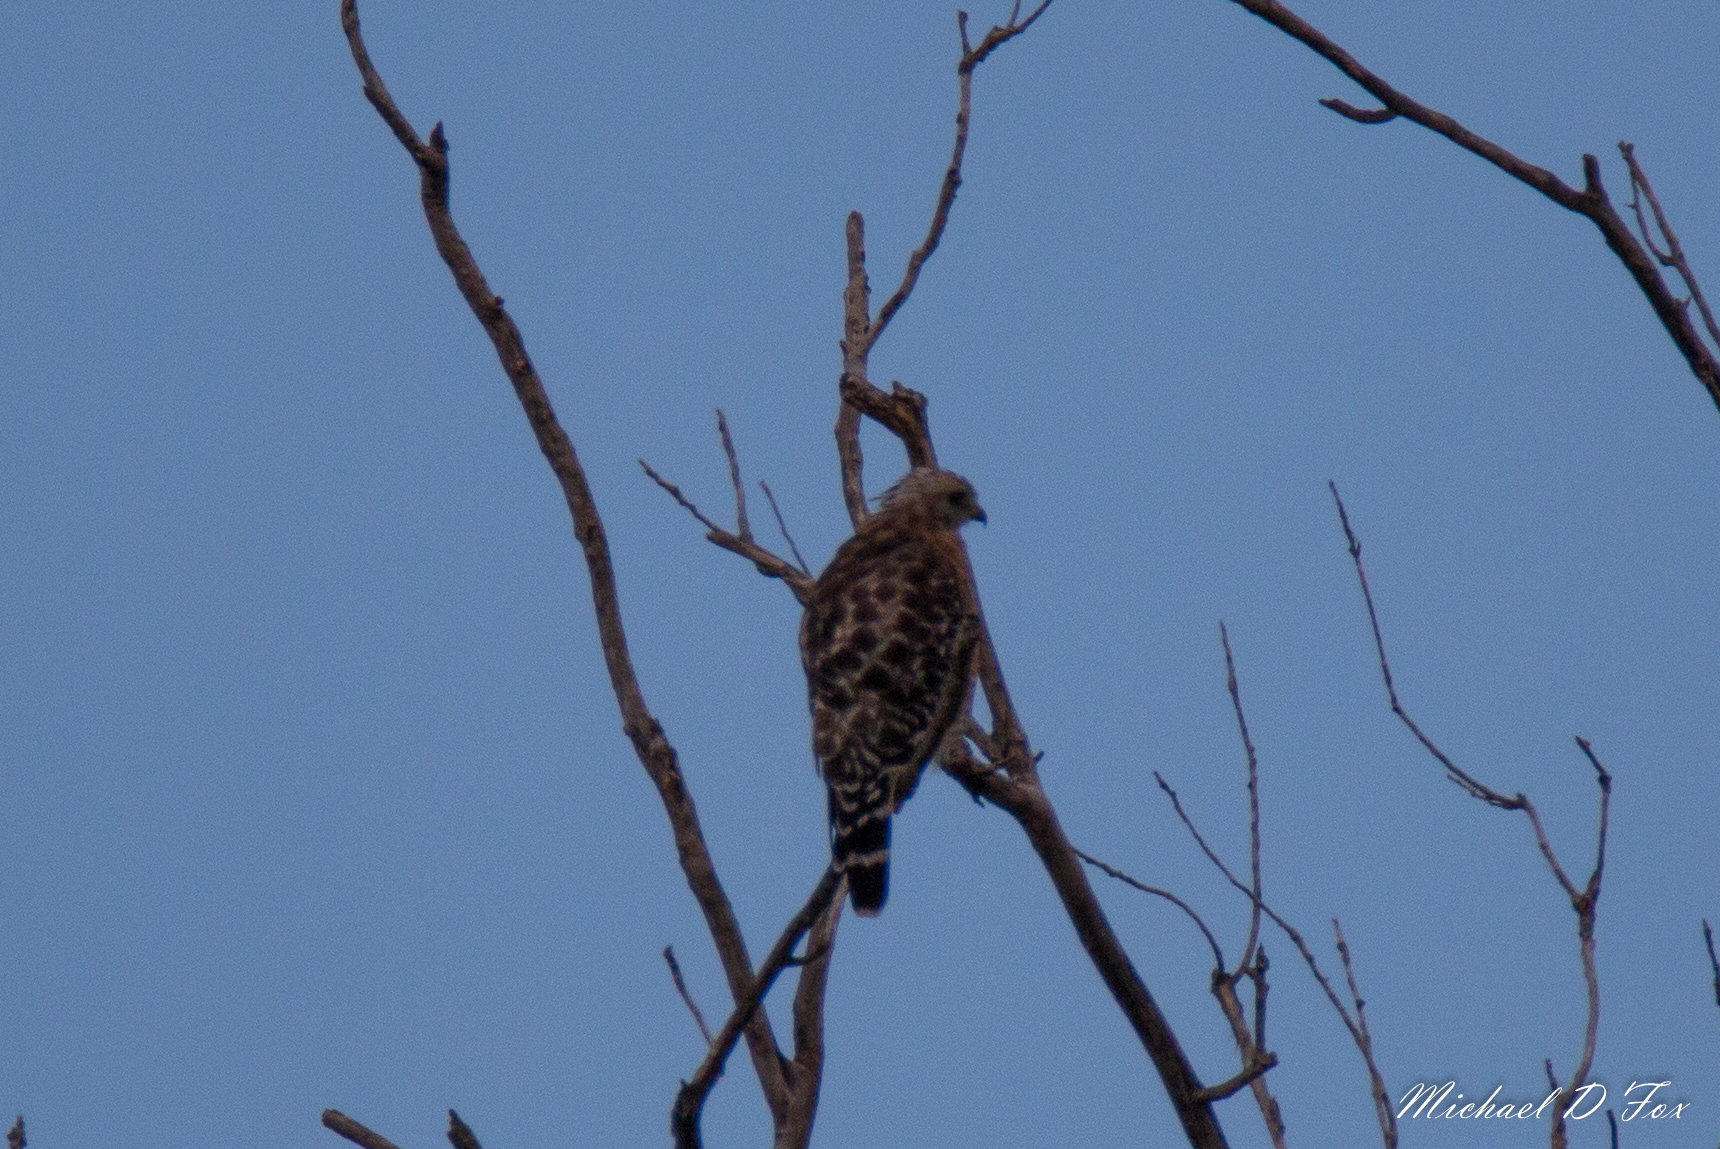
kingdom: Animalia
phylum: Chordata
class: Aves
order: Accipitriformes
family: Accipitridae
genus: Buteo
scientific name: Buteo lineatus
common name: Red-shouldered hawk
